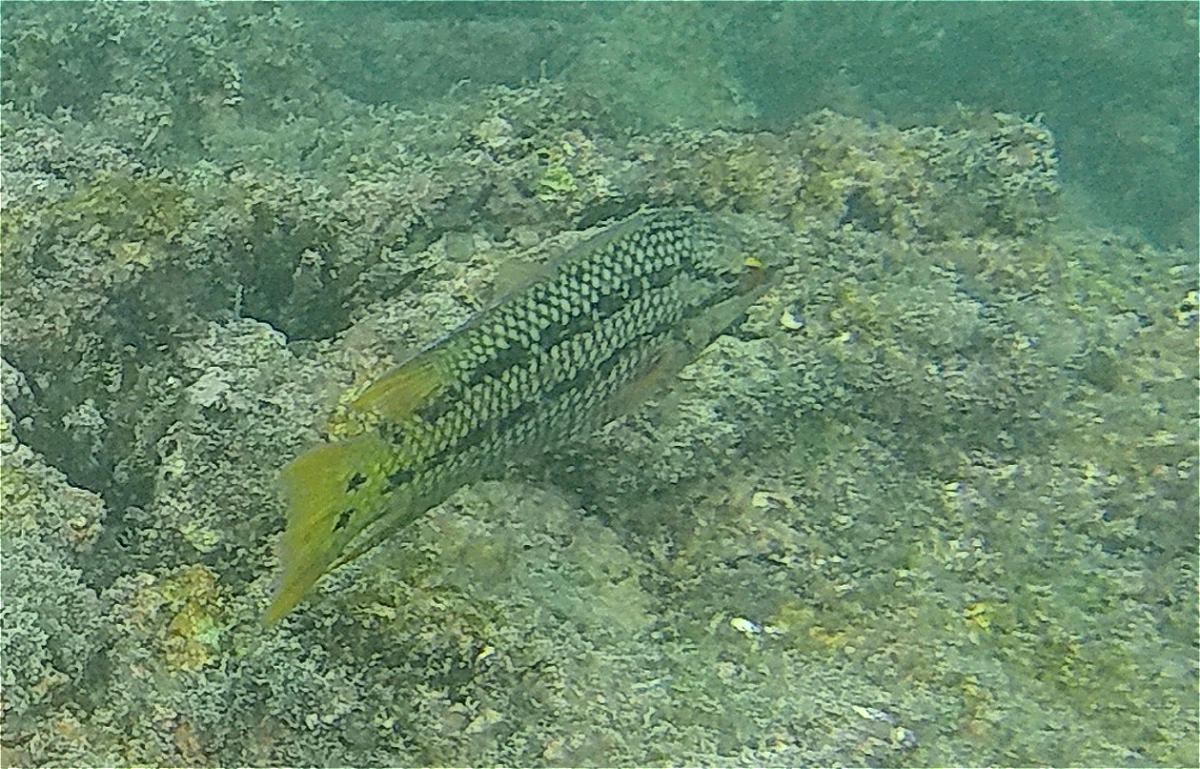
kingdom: Animalia
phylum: Chordata
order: Perciformes
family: Labridae
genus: Bodianus
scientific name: Bodianus diplotaenia
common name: Mexican hogfish
